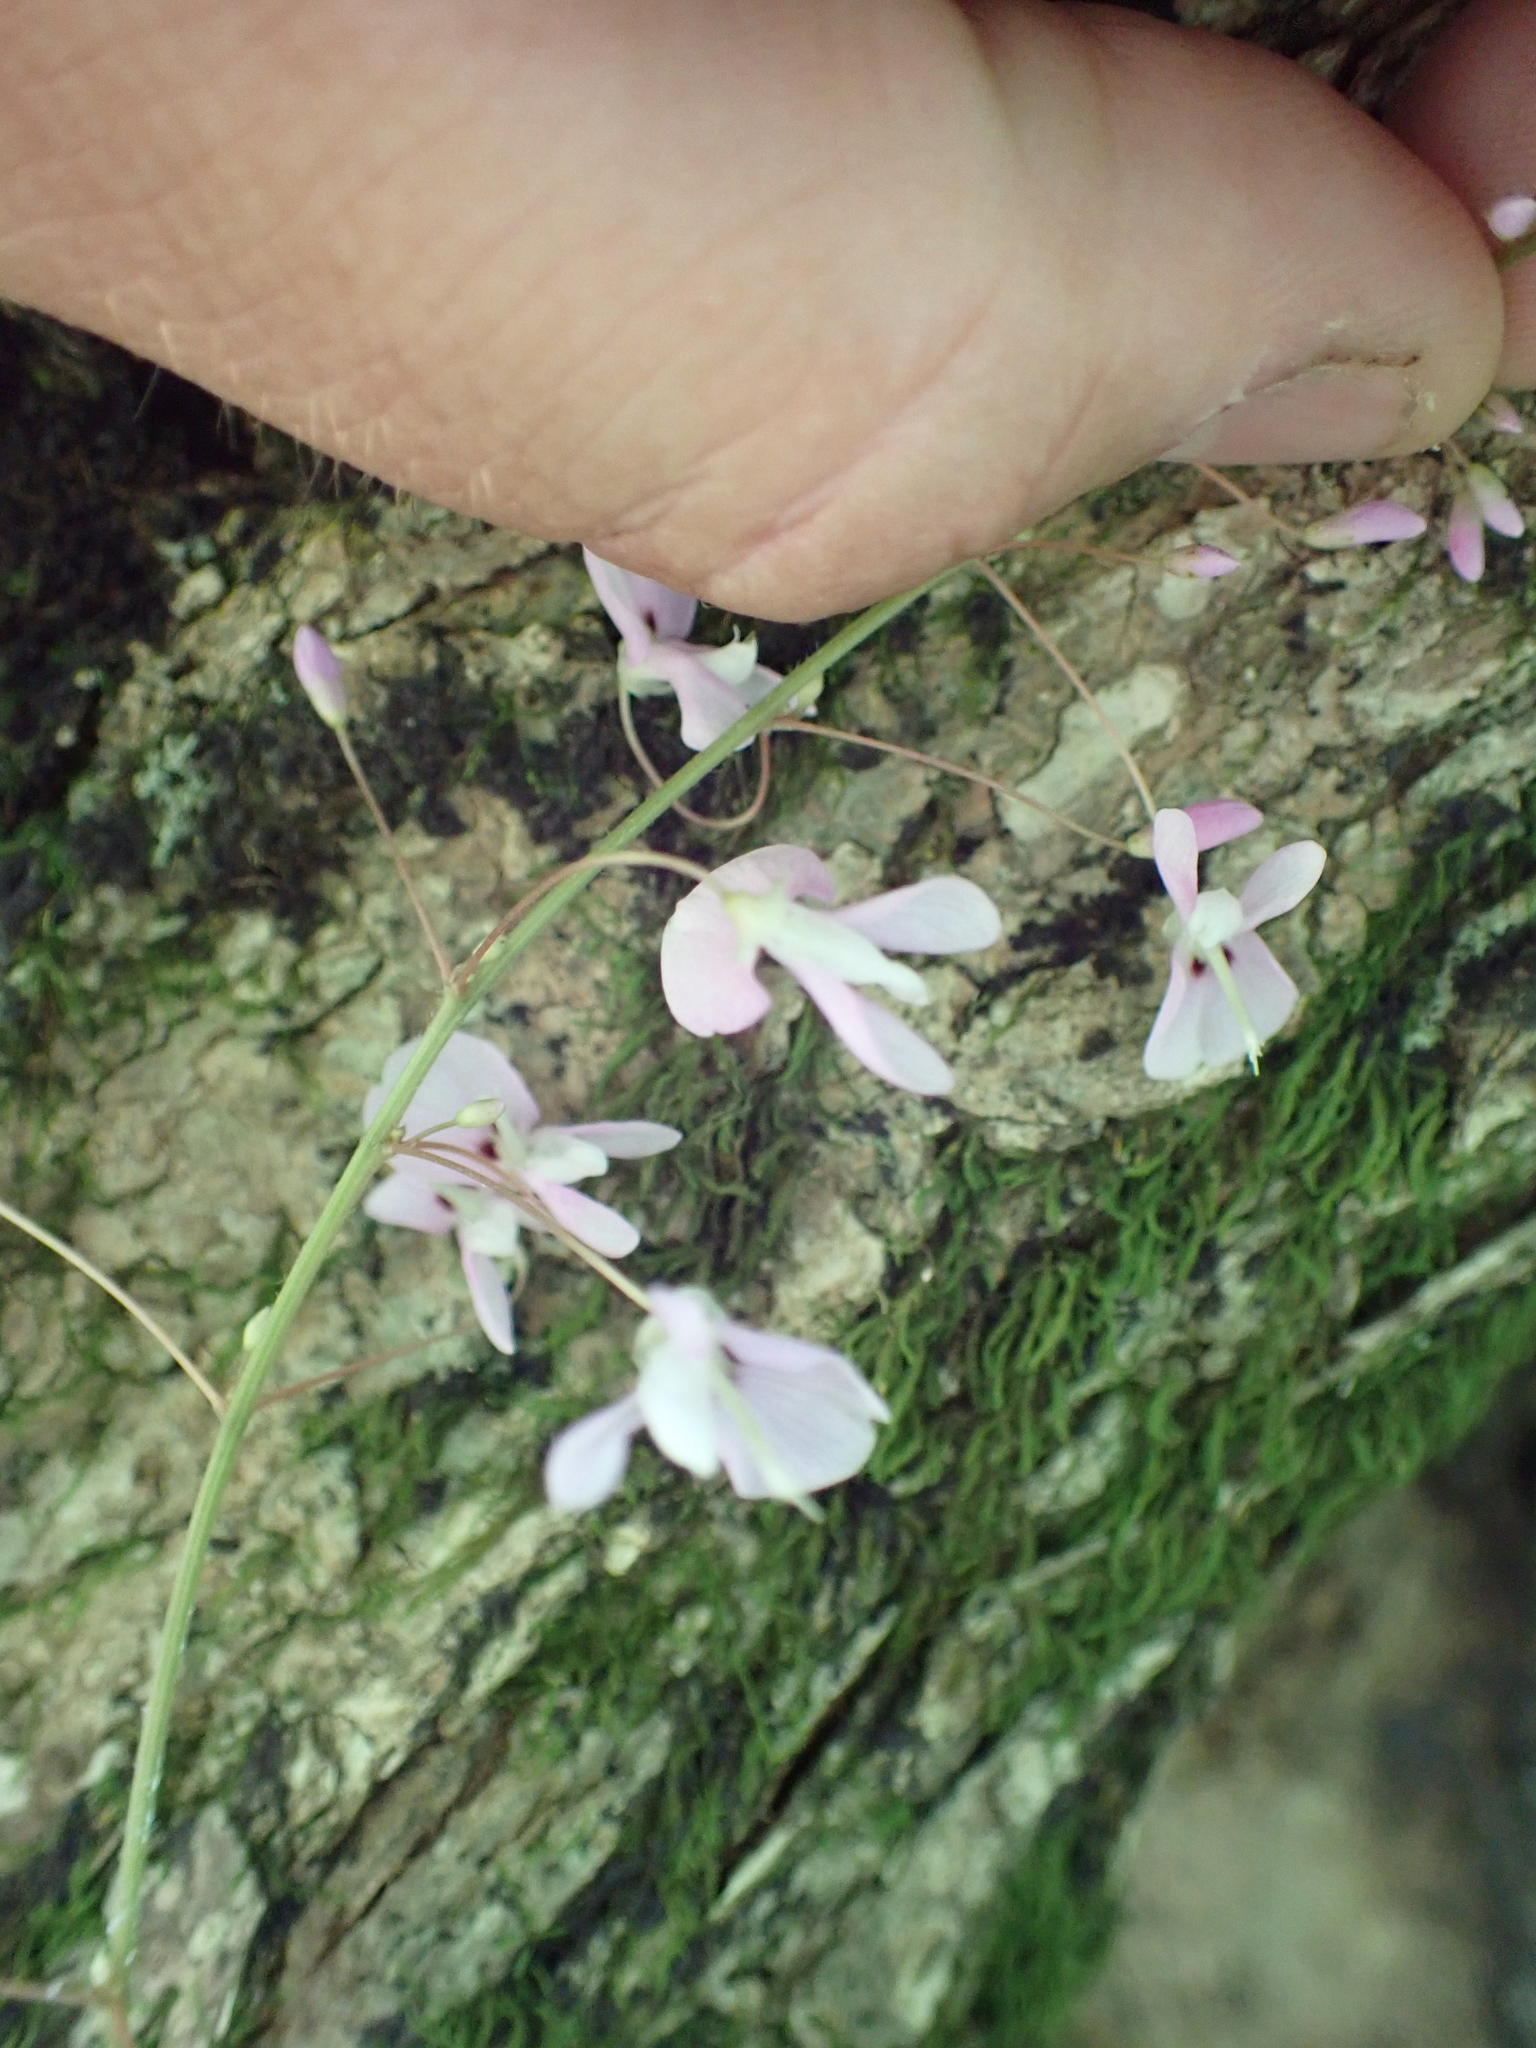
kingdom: Plantae
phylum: Tracheophyta
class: Magnoliopsida
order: Fabales
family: Fabaceae
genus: Hylodesmum
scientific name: Hylodesmum nudiflorum
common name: Bare-stemmed tick-trefoil
